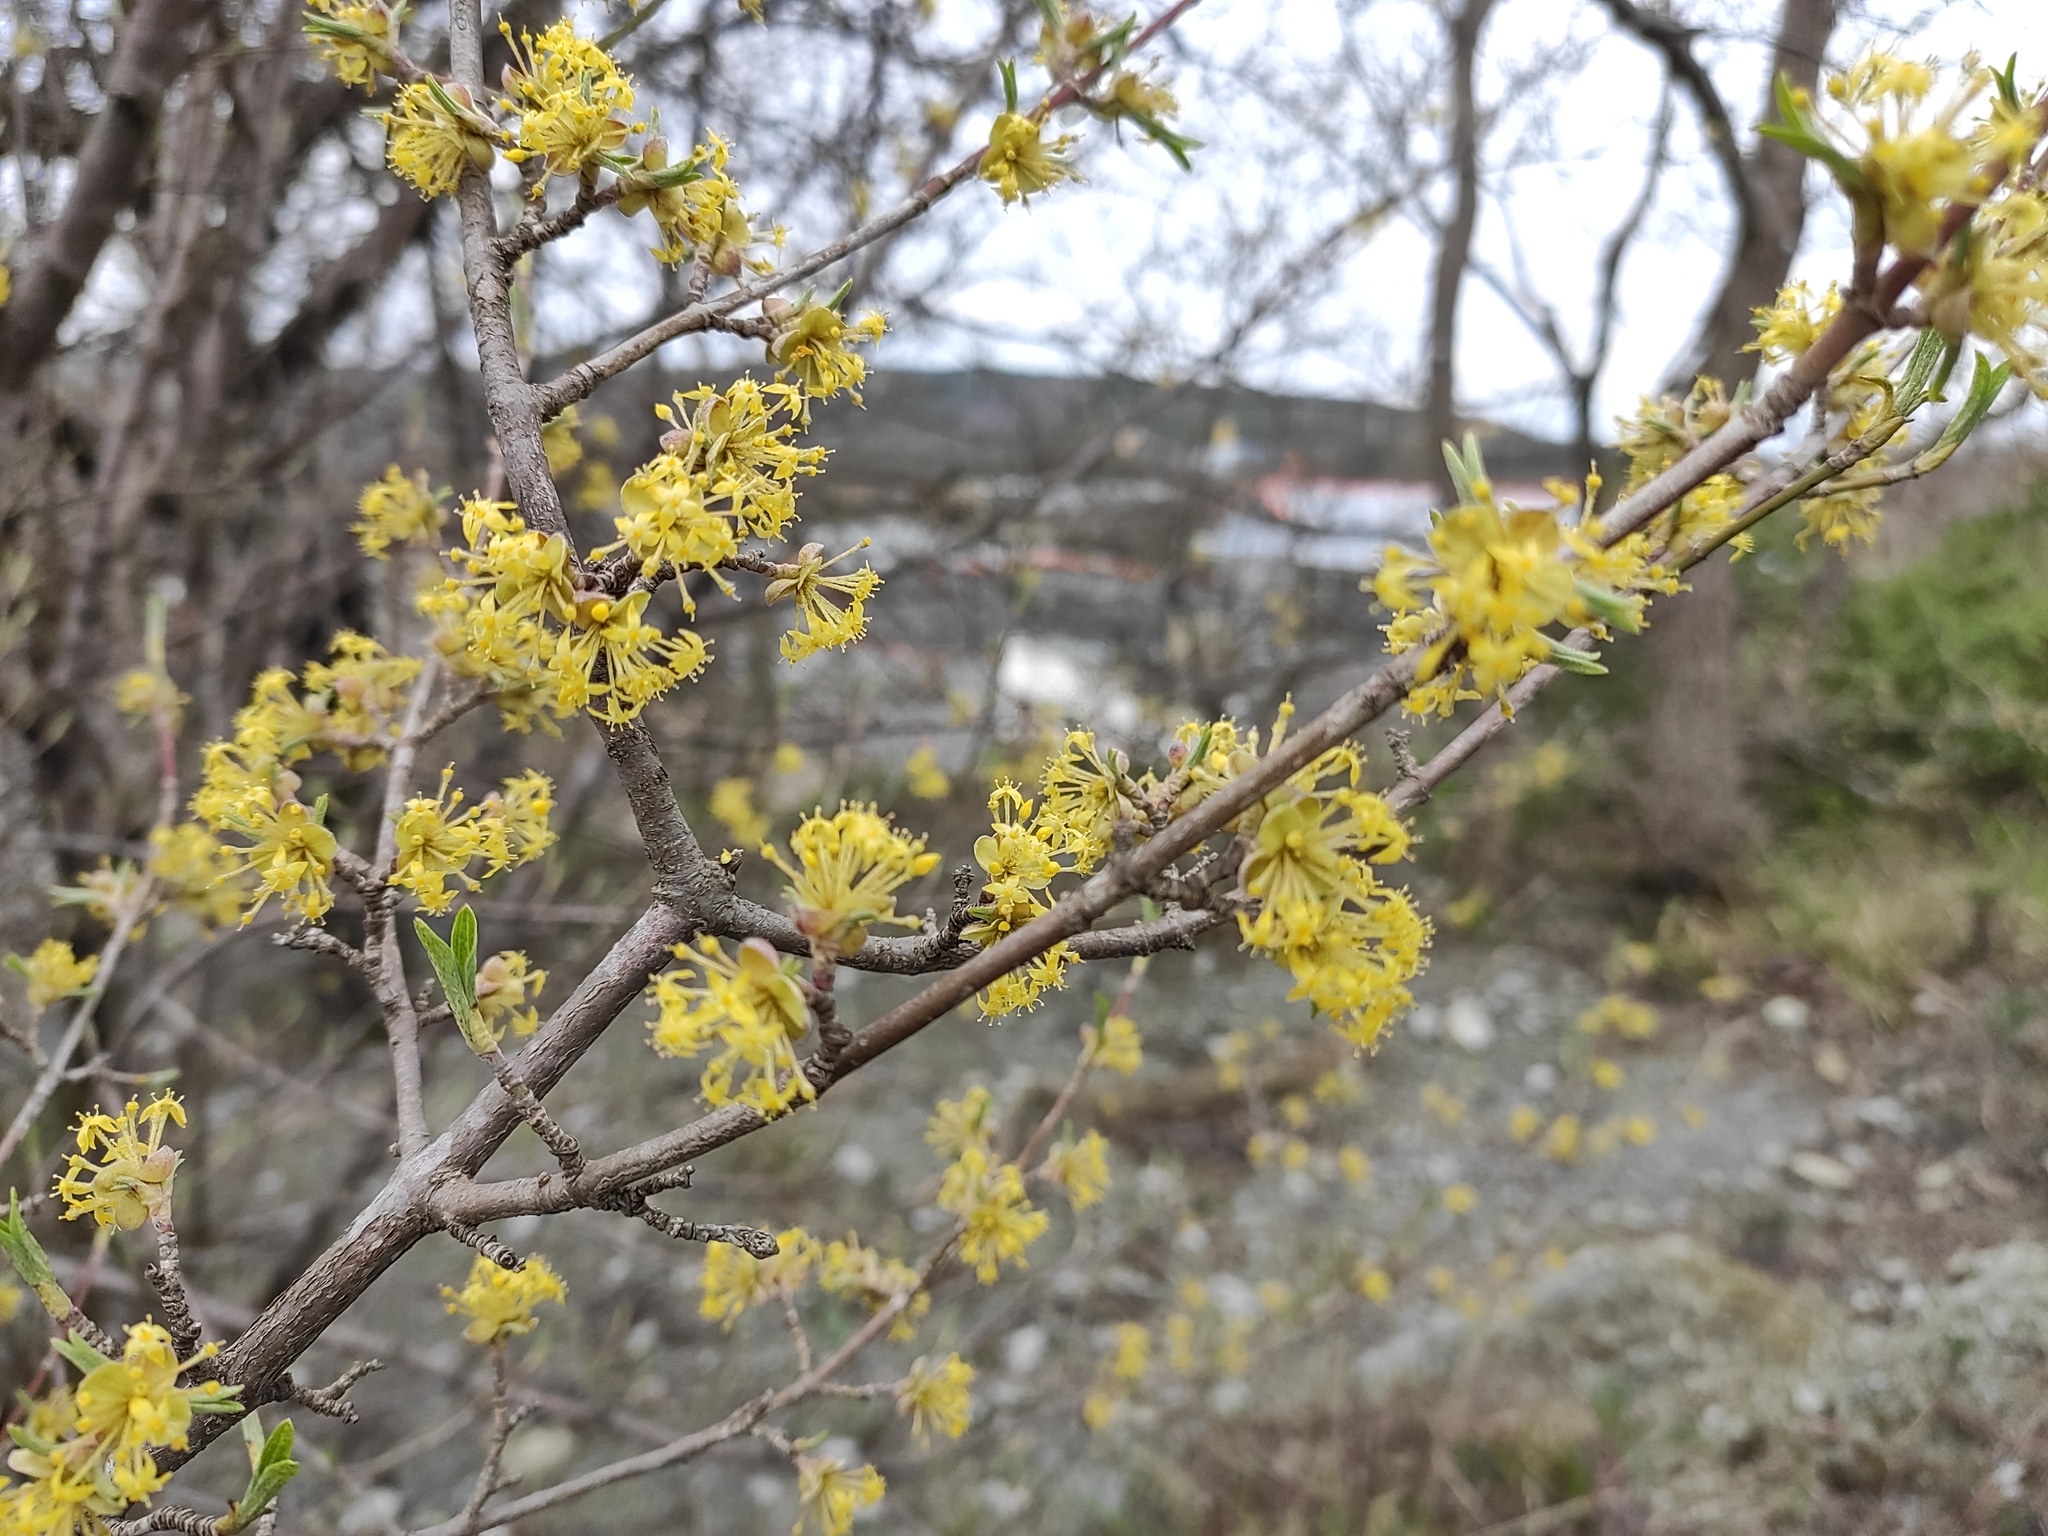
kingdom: Plantae
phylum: Tracheophyta
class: Magnoliopsida
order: Cornales
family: Cornaceae
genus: Cornus
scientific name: Cornus mas
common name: Cornelian-cherry
